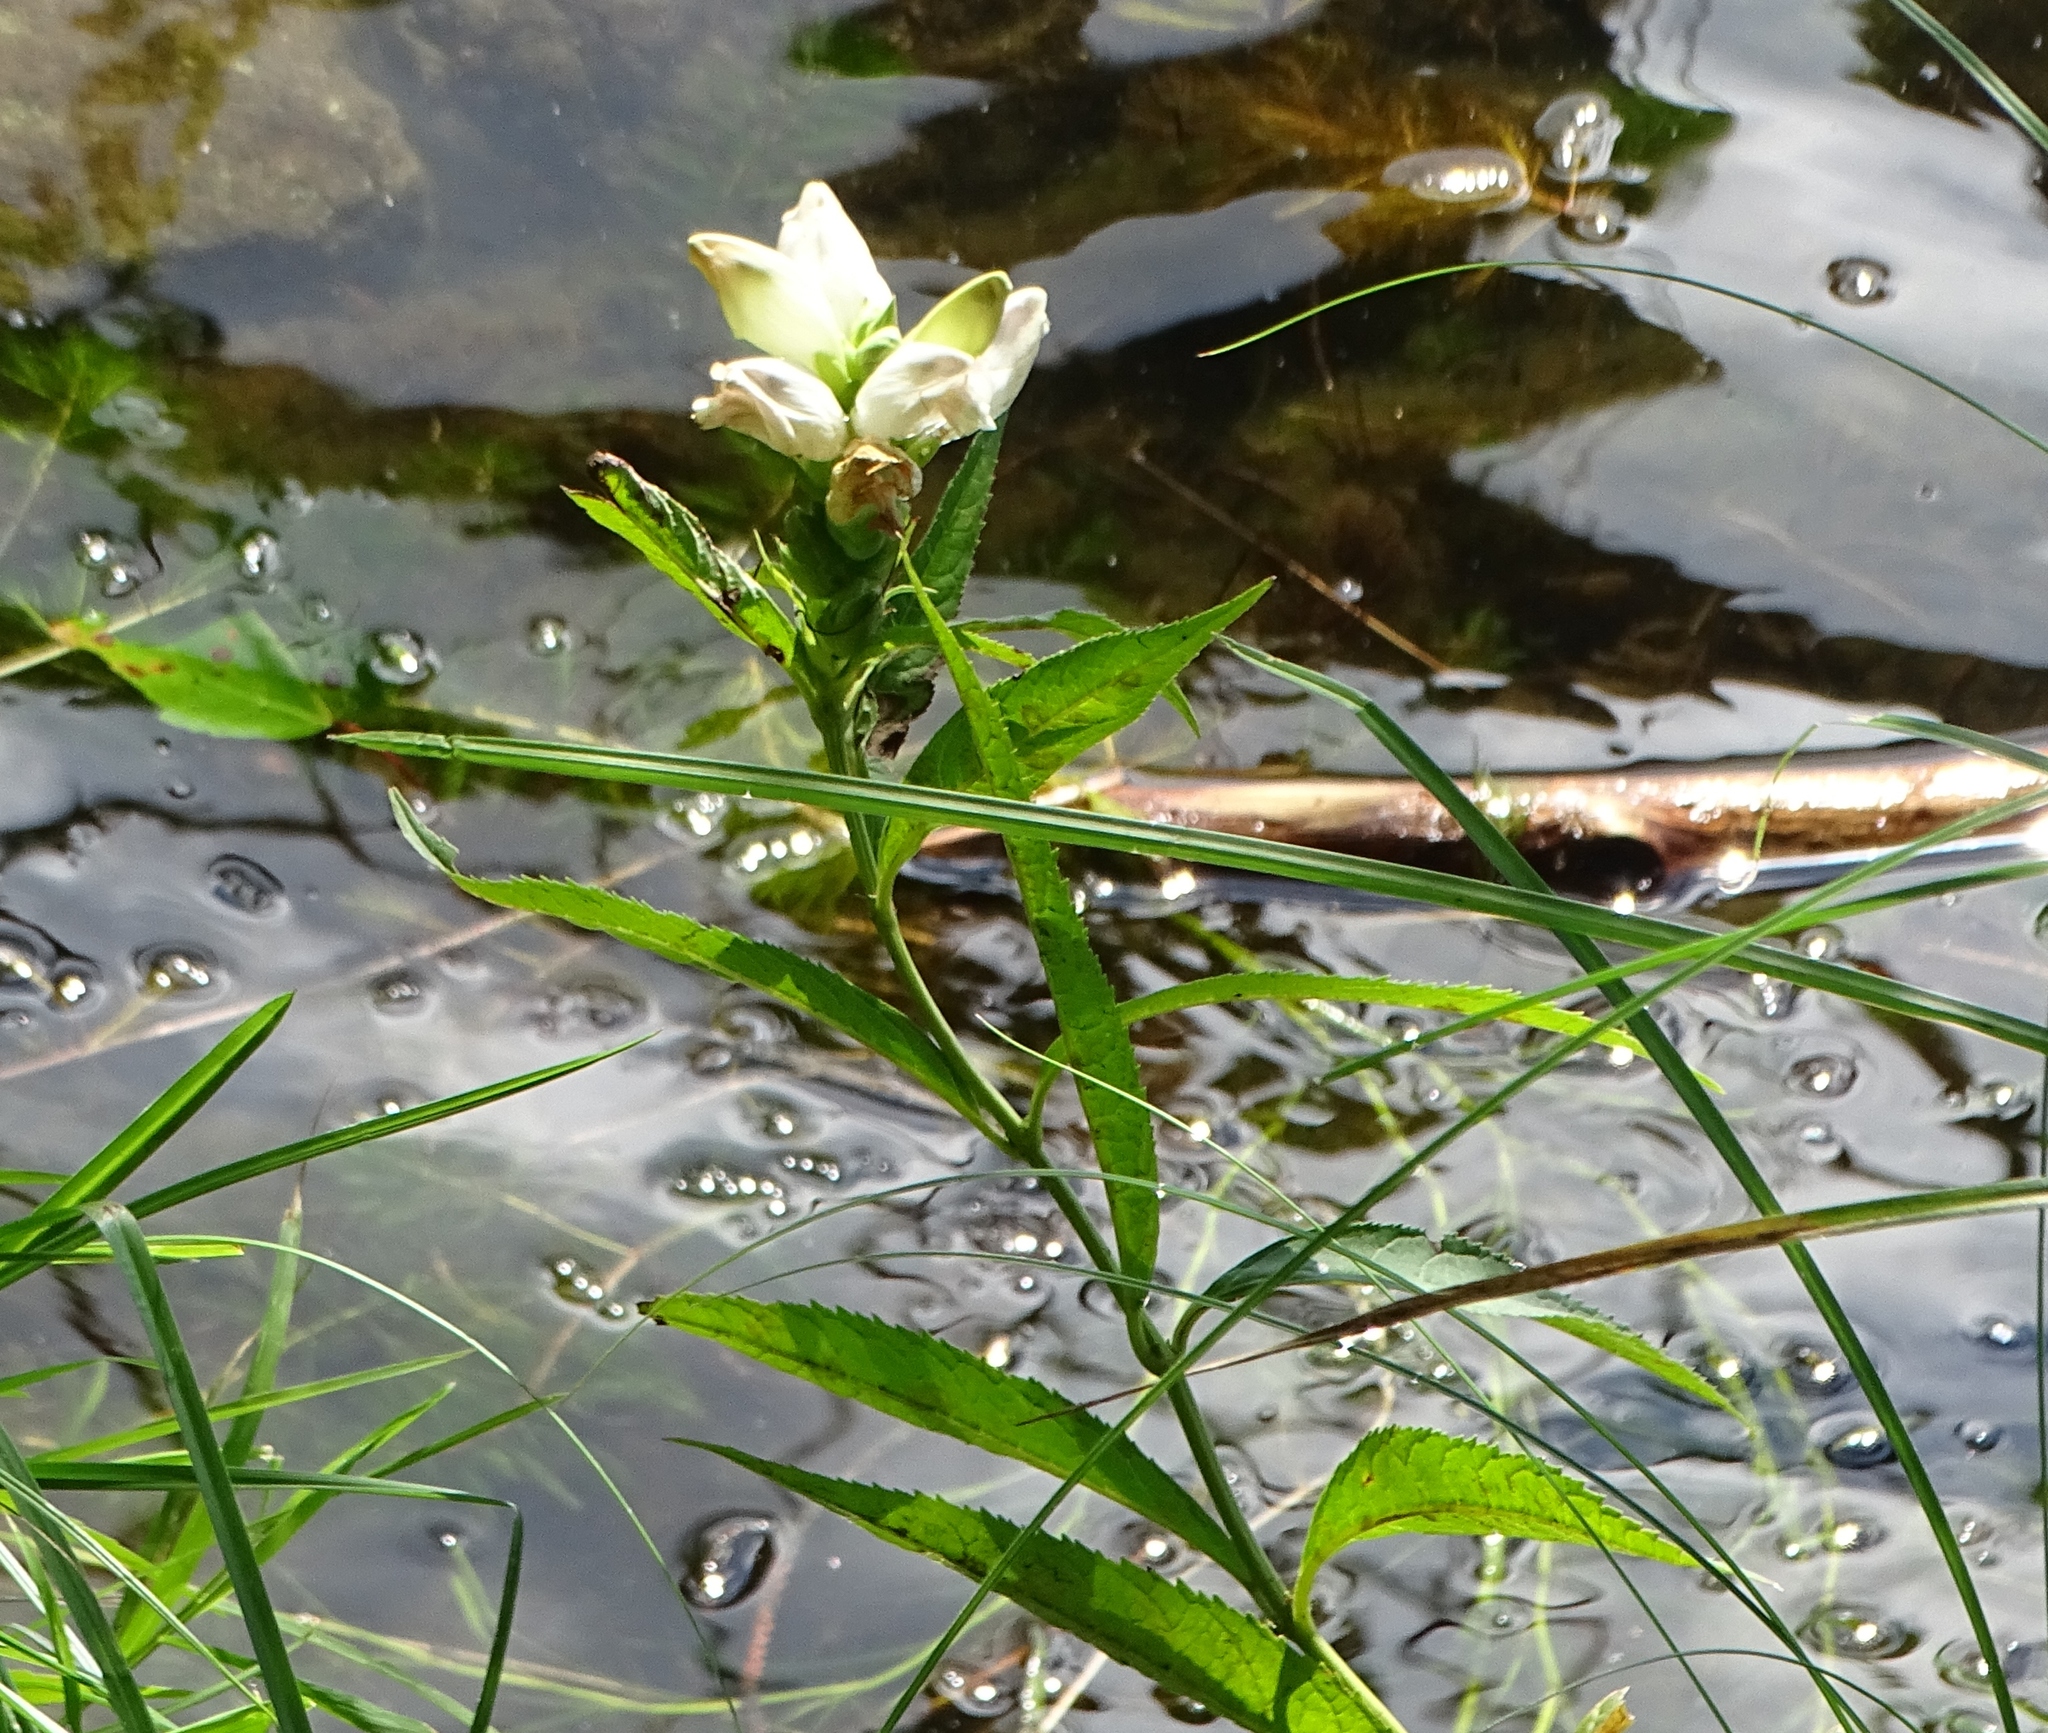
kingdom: Plantae
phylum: Tracheophyta
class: Magnoliopsida
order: Lamiales
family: Plantaginaceae
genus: Chelone
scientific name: Chelone glabra
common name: Snakehead
